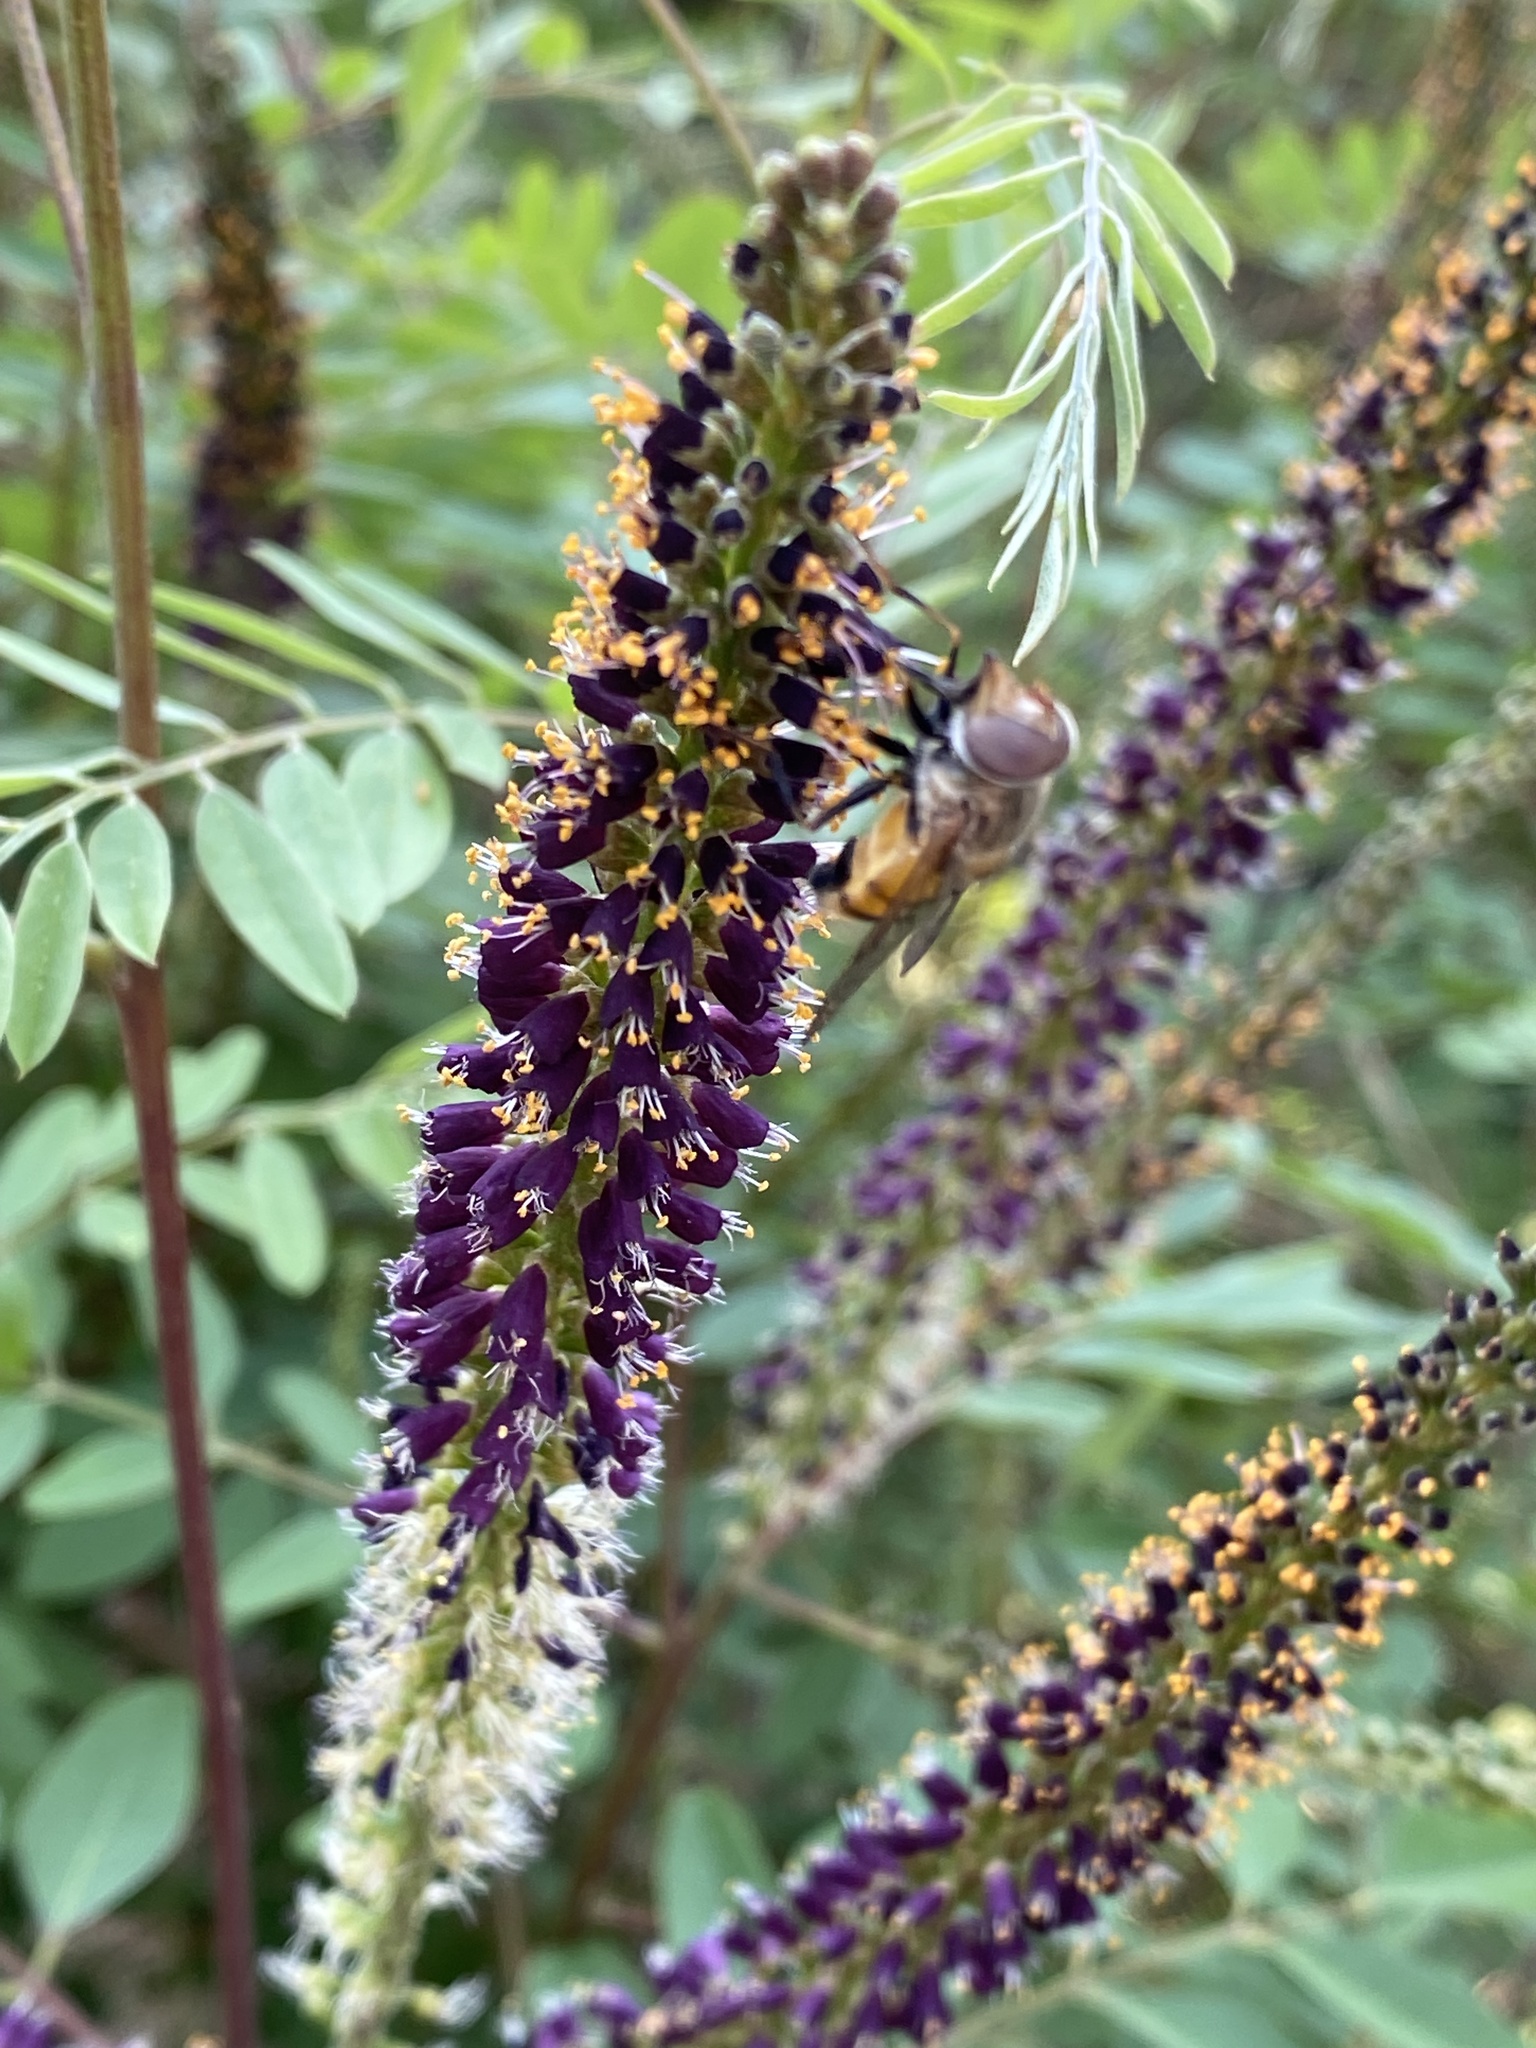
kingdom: Animalia
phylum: Arthropoda
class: Insecta
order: Diptera
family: Syrphidae
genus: Copestylum
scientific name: Copestylum haagii
